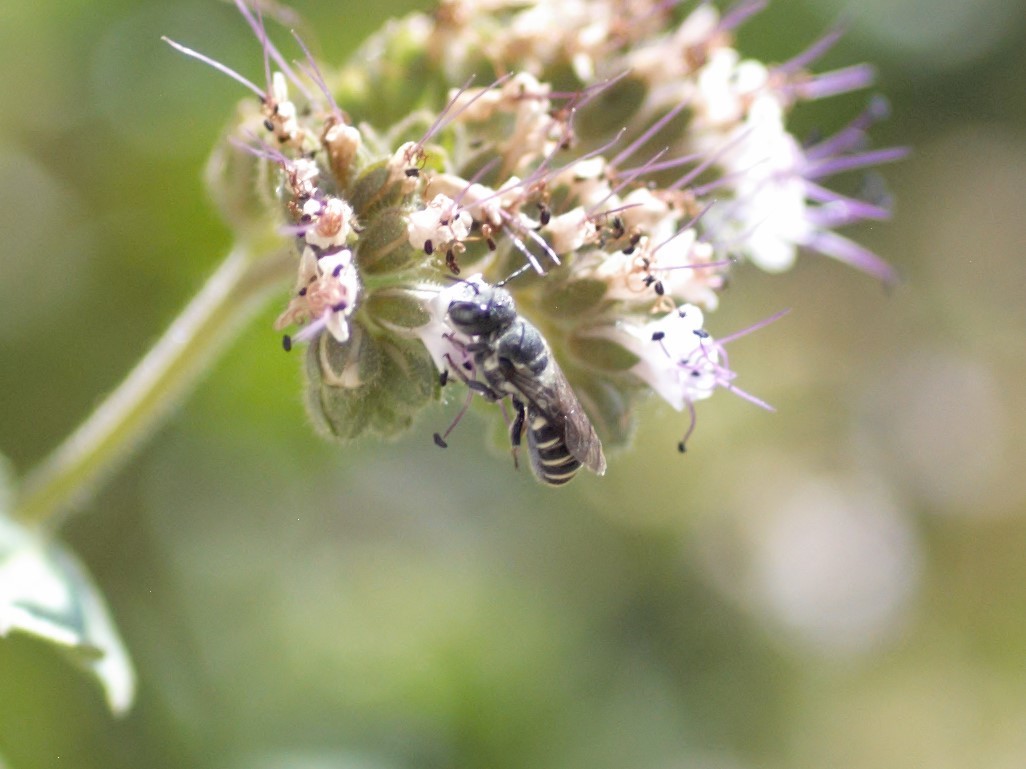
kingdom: Animalia
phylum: Arthropoda
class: Insecta
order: Hymenoptera
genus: Chelostomoides
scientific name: Chelostomoides
